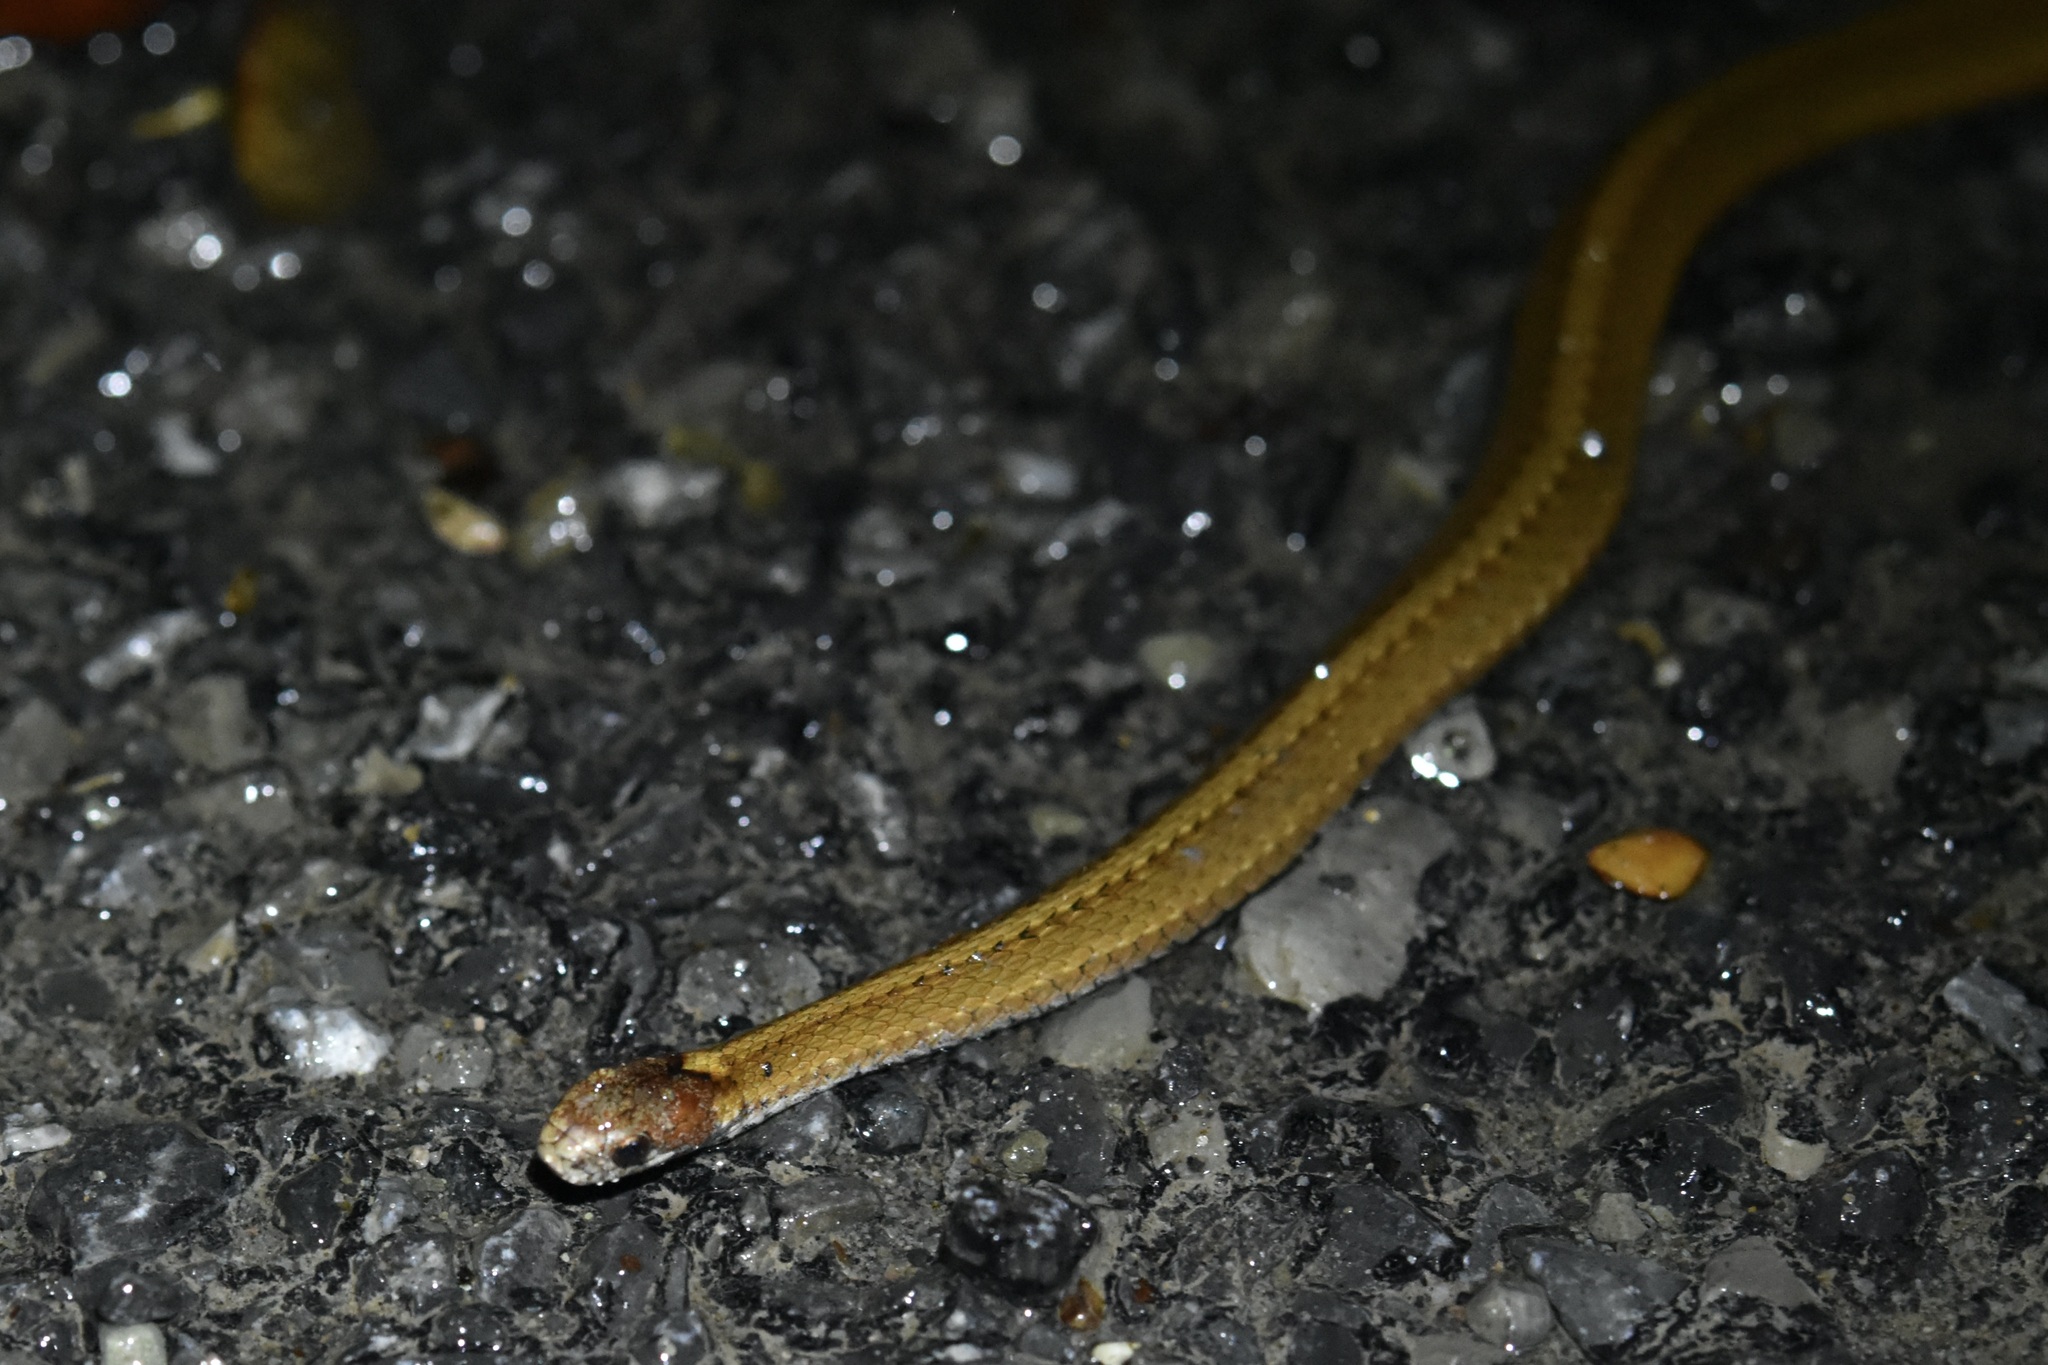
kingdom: Animalia
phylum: Chordata
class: Squamata
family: Colubridae
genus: Storeria
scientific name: Storeria occipitomaculata
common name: Redbelly snake
